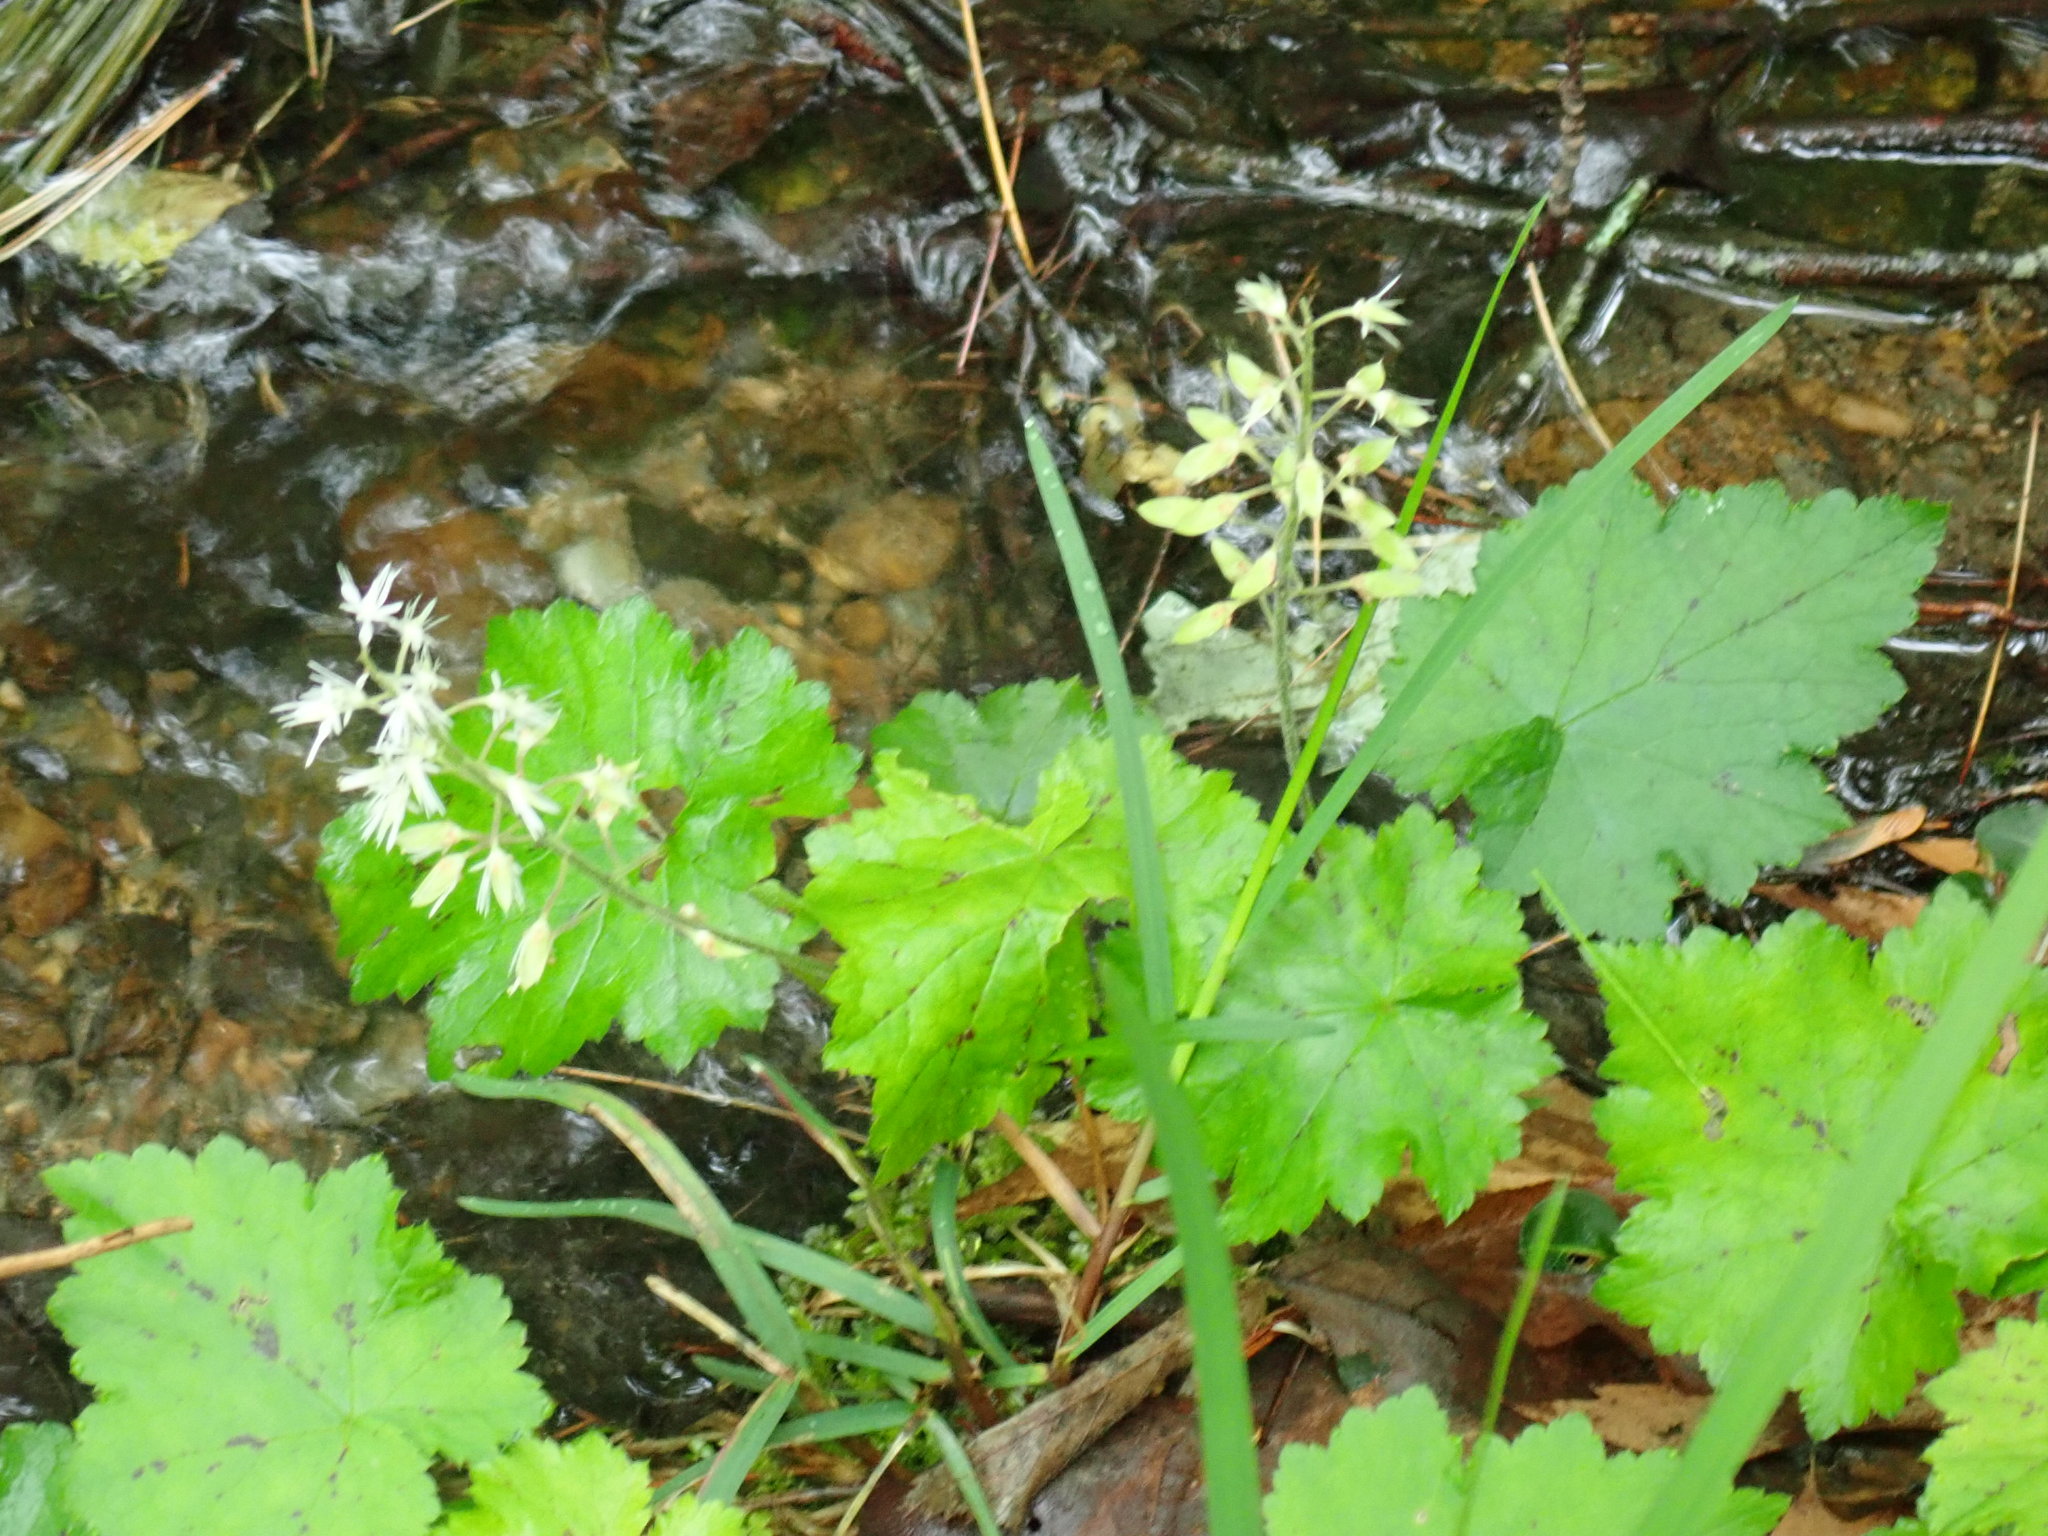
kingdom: Plantae
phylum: Tracheophyta
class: Magnoliopsida
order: Saxifragales
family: Saxifragaceae
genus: Tiarella
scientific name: Tiarella stolonifera
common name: Stoloniferous foamflower
